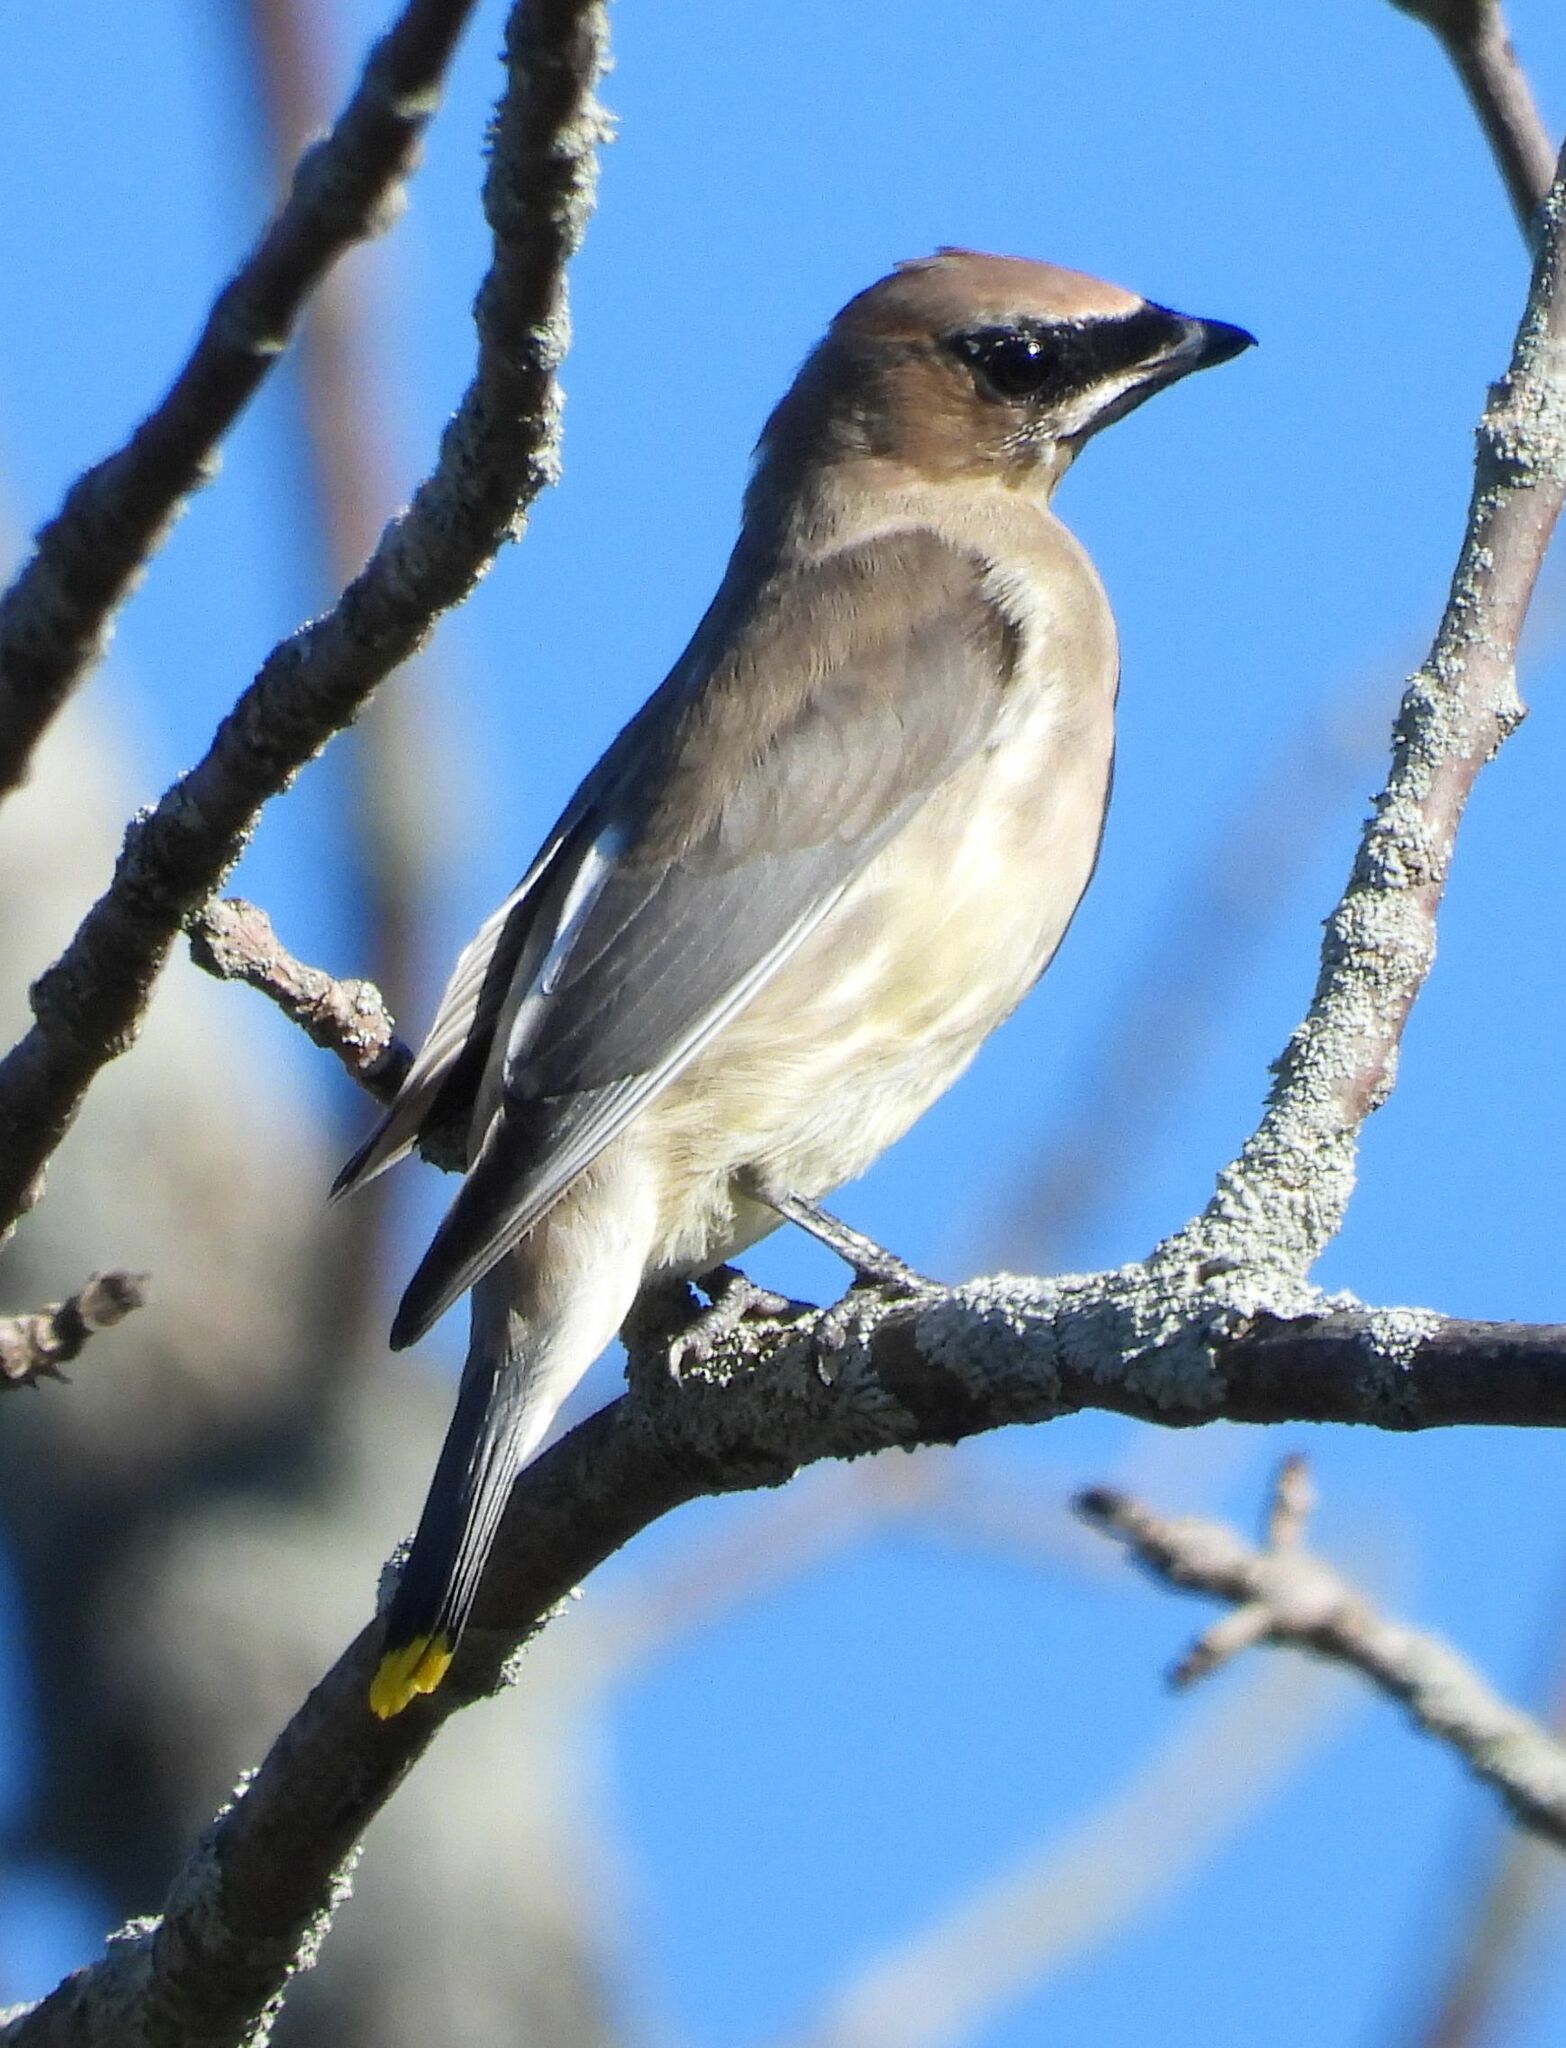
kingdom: Animalia
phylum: Chordata
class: Aves
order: Passeriformes
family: Bombycillidae
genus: Bombycilla
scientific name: Bombycilla cedrorum
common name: Cedar waxwing
